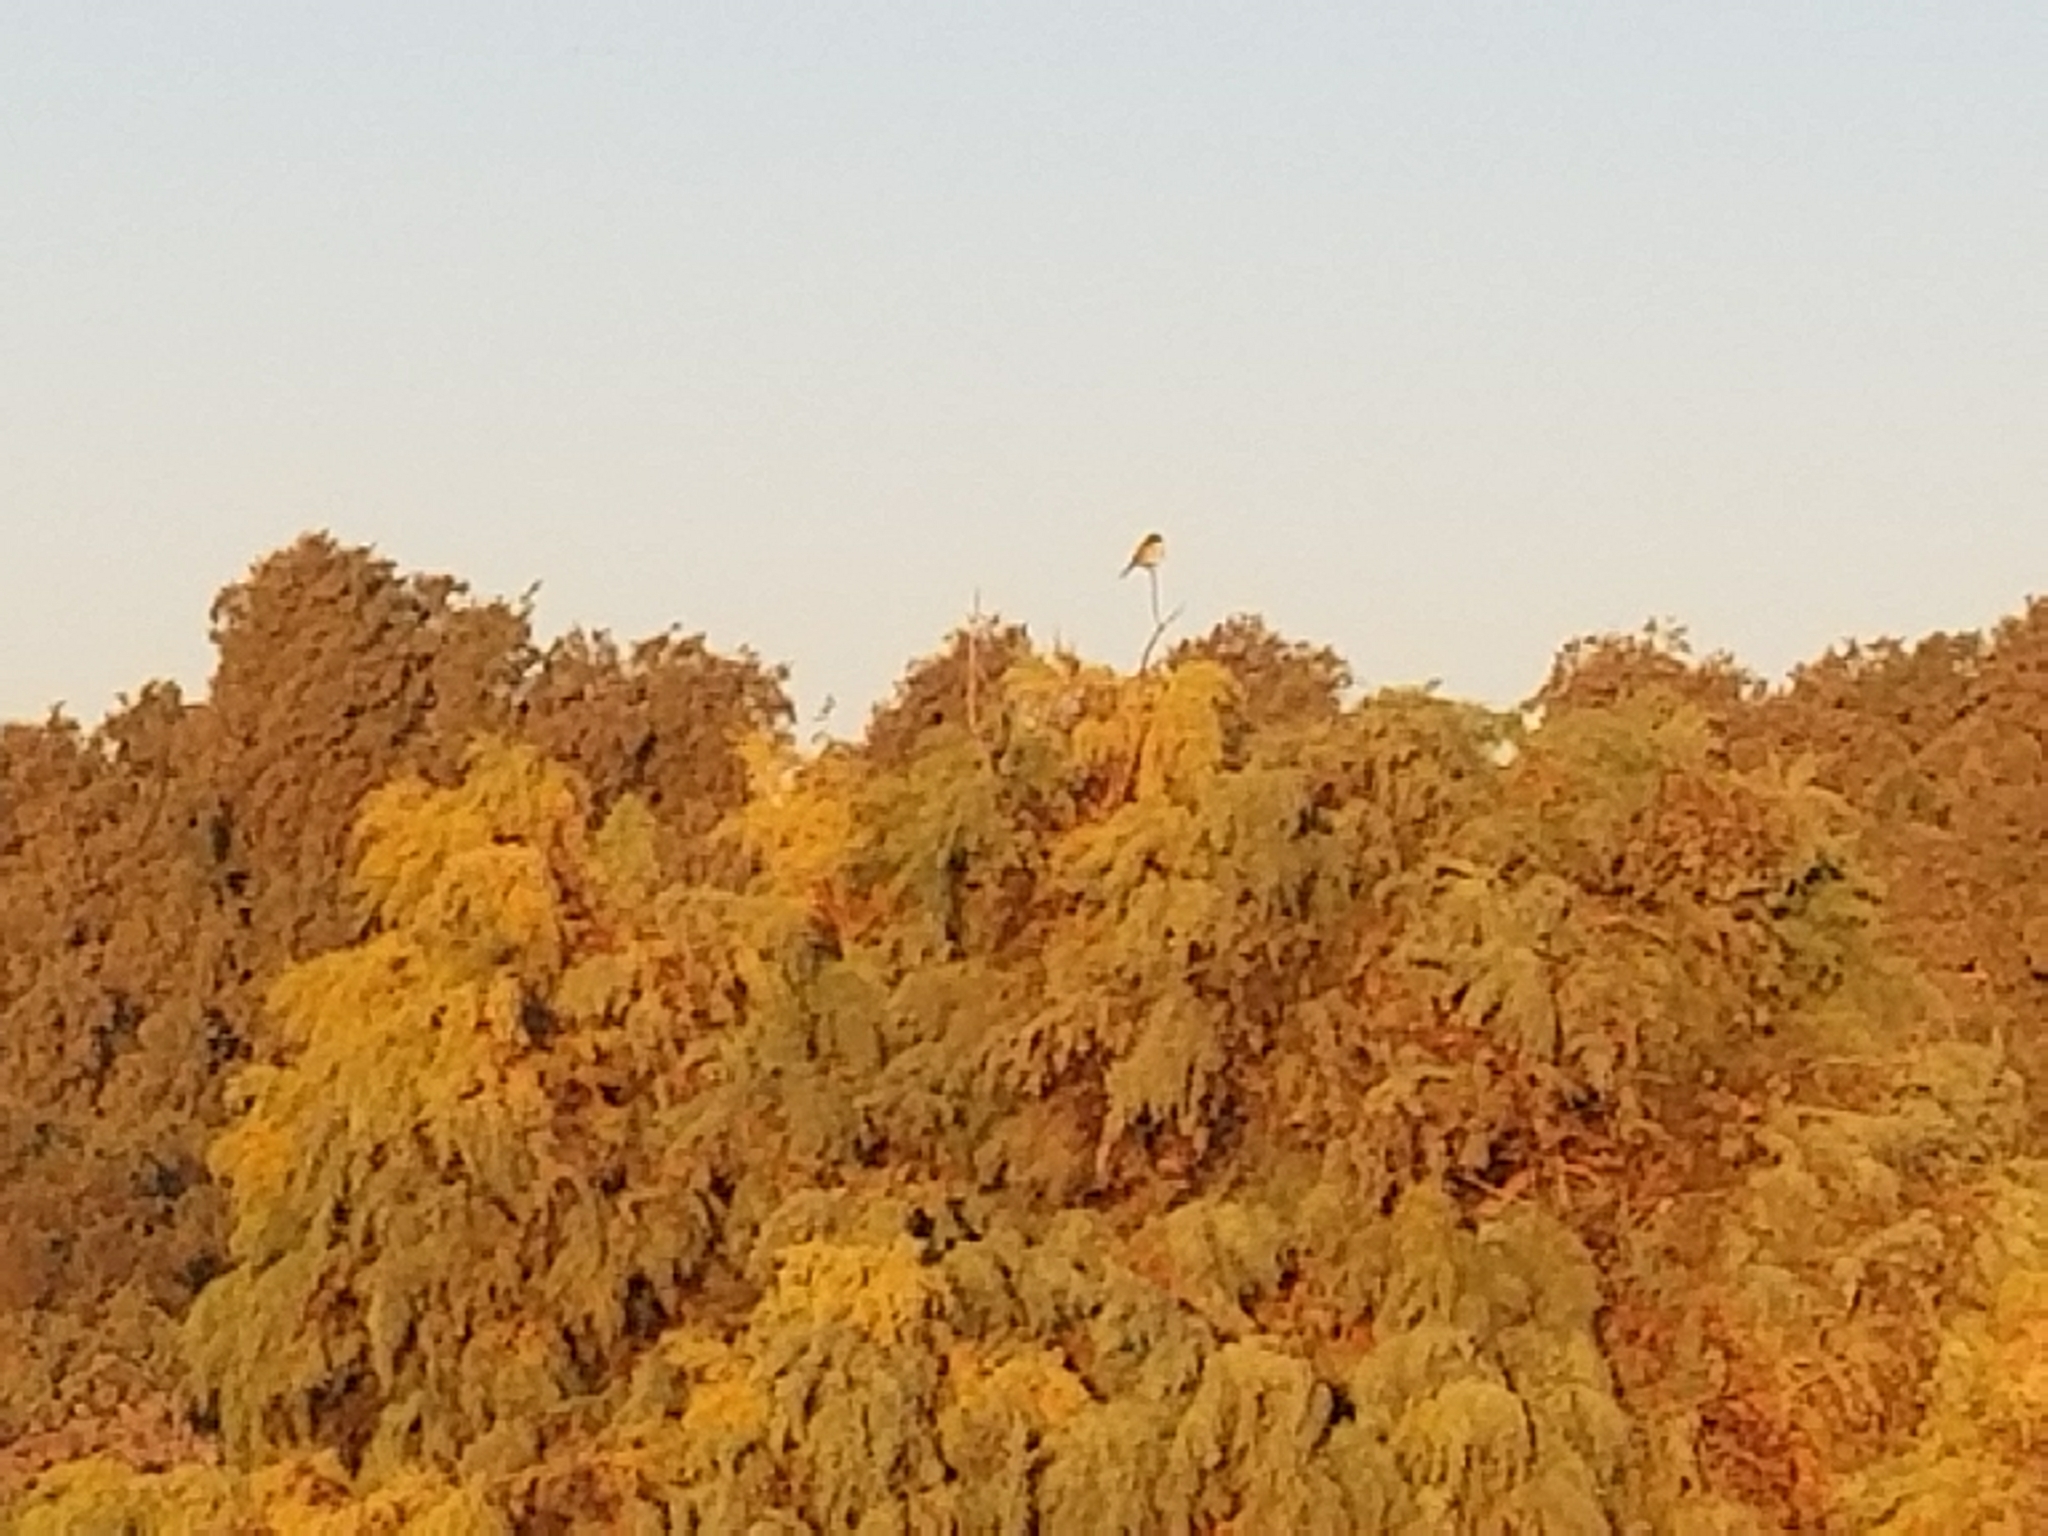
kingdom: Animalia
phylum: Chordata
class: Aves
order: Passeriformes
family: Laniidae
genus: Lanius
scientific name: Lanius ludovicianus
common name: Loggerhead shrike
